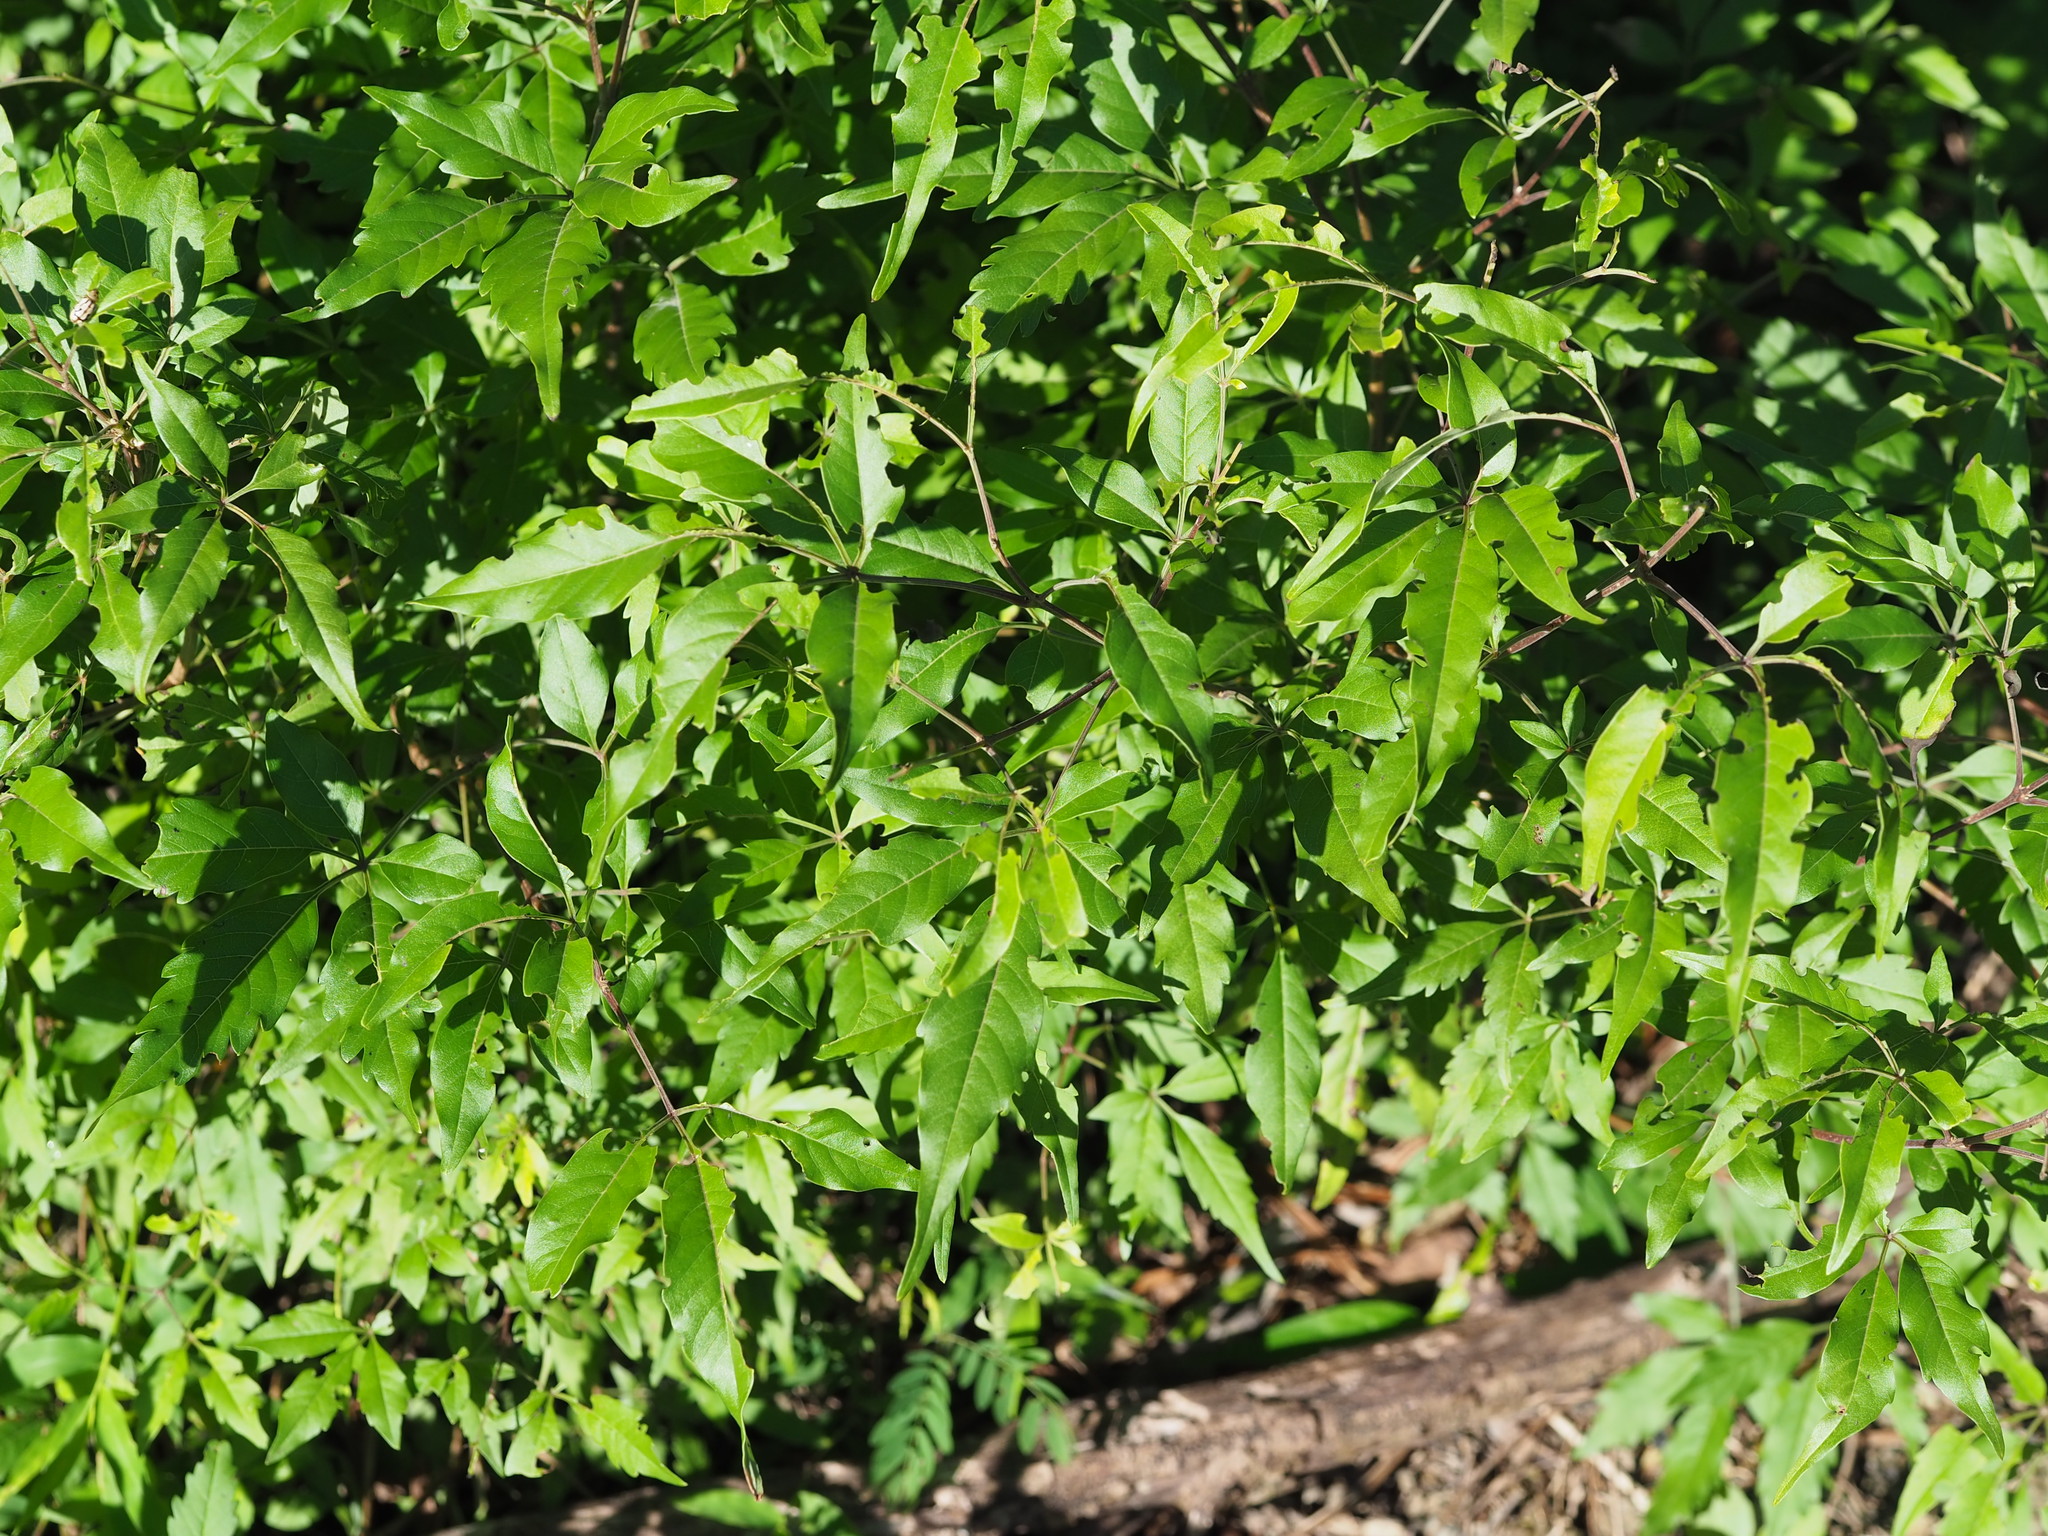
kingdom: Plantae
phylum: Tracheophyta
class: Magnoliopsida
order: Lamiales
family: Lamiaceae
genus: Vitex
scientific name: Vitex negundo
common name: Chinese chastetree
